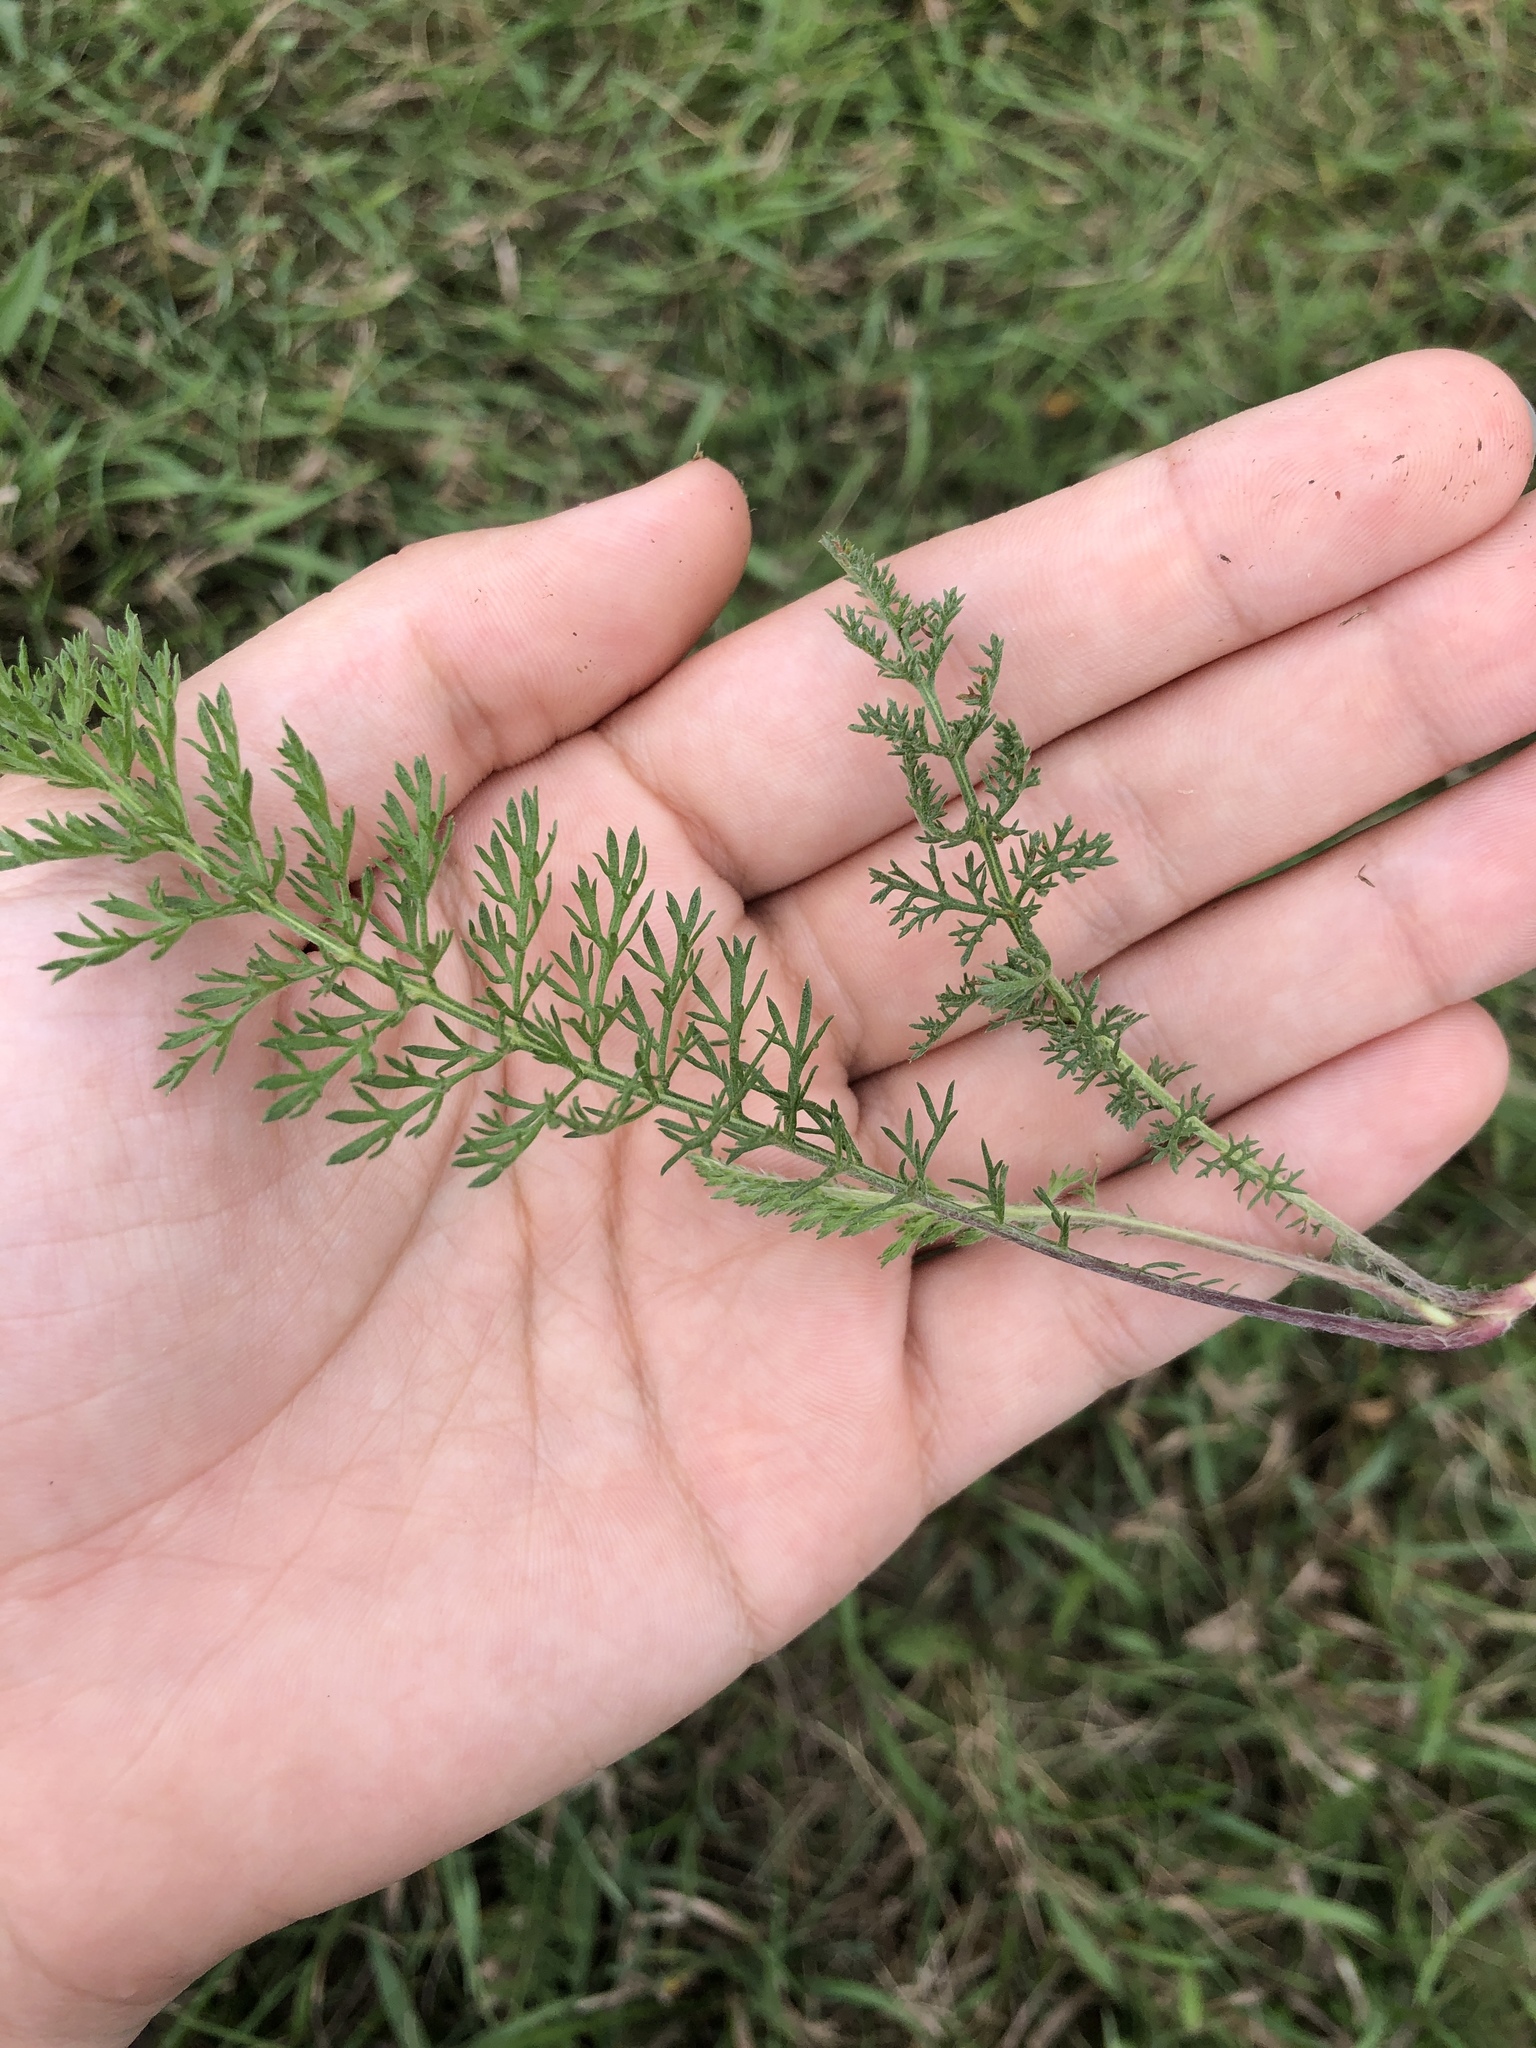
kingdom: Plantae
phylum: Tracheophyta
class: Magnoliopsida
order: Asterales
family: Asteraceae
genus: Achillea
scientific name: Achillea millefolium
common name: Yarrow
